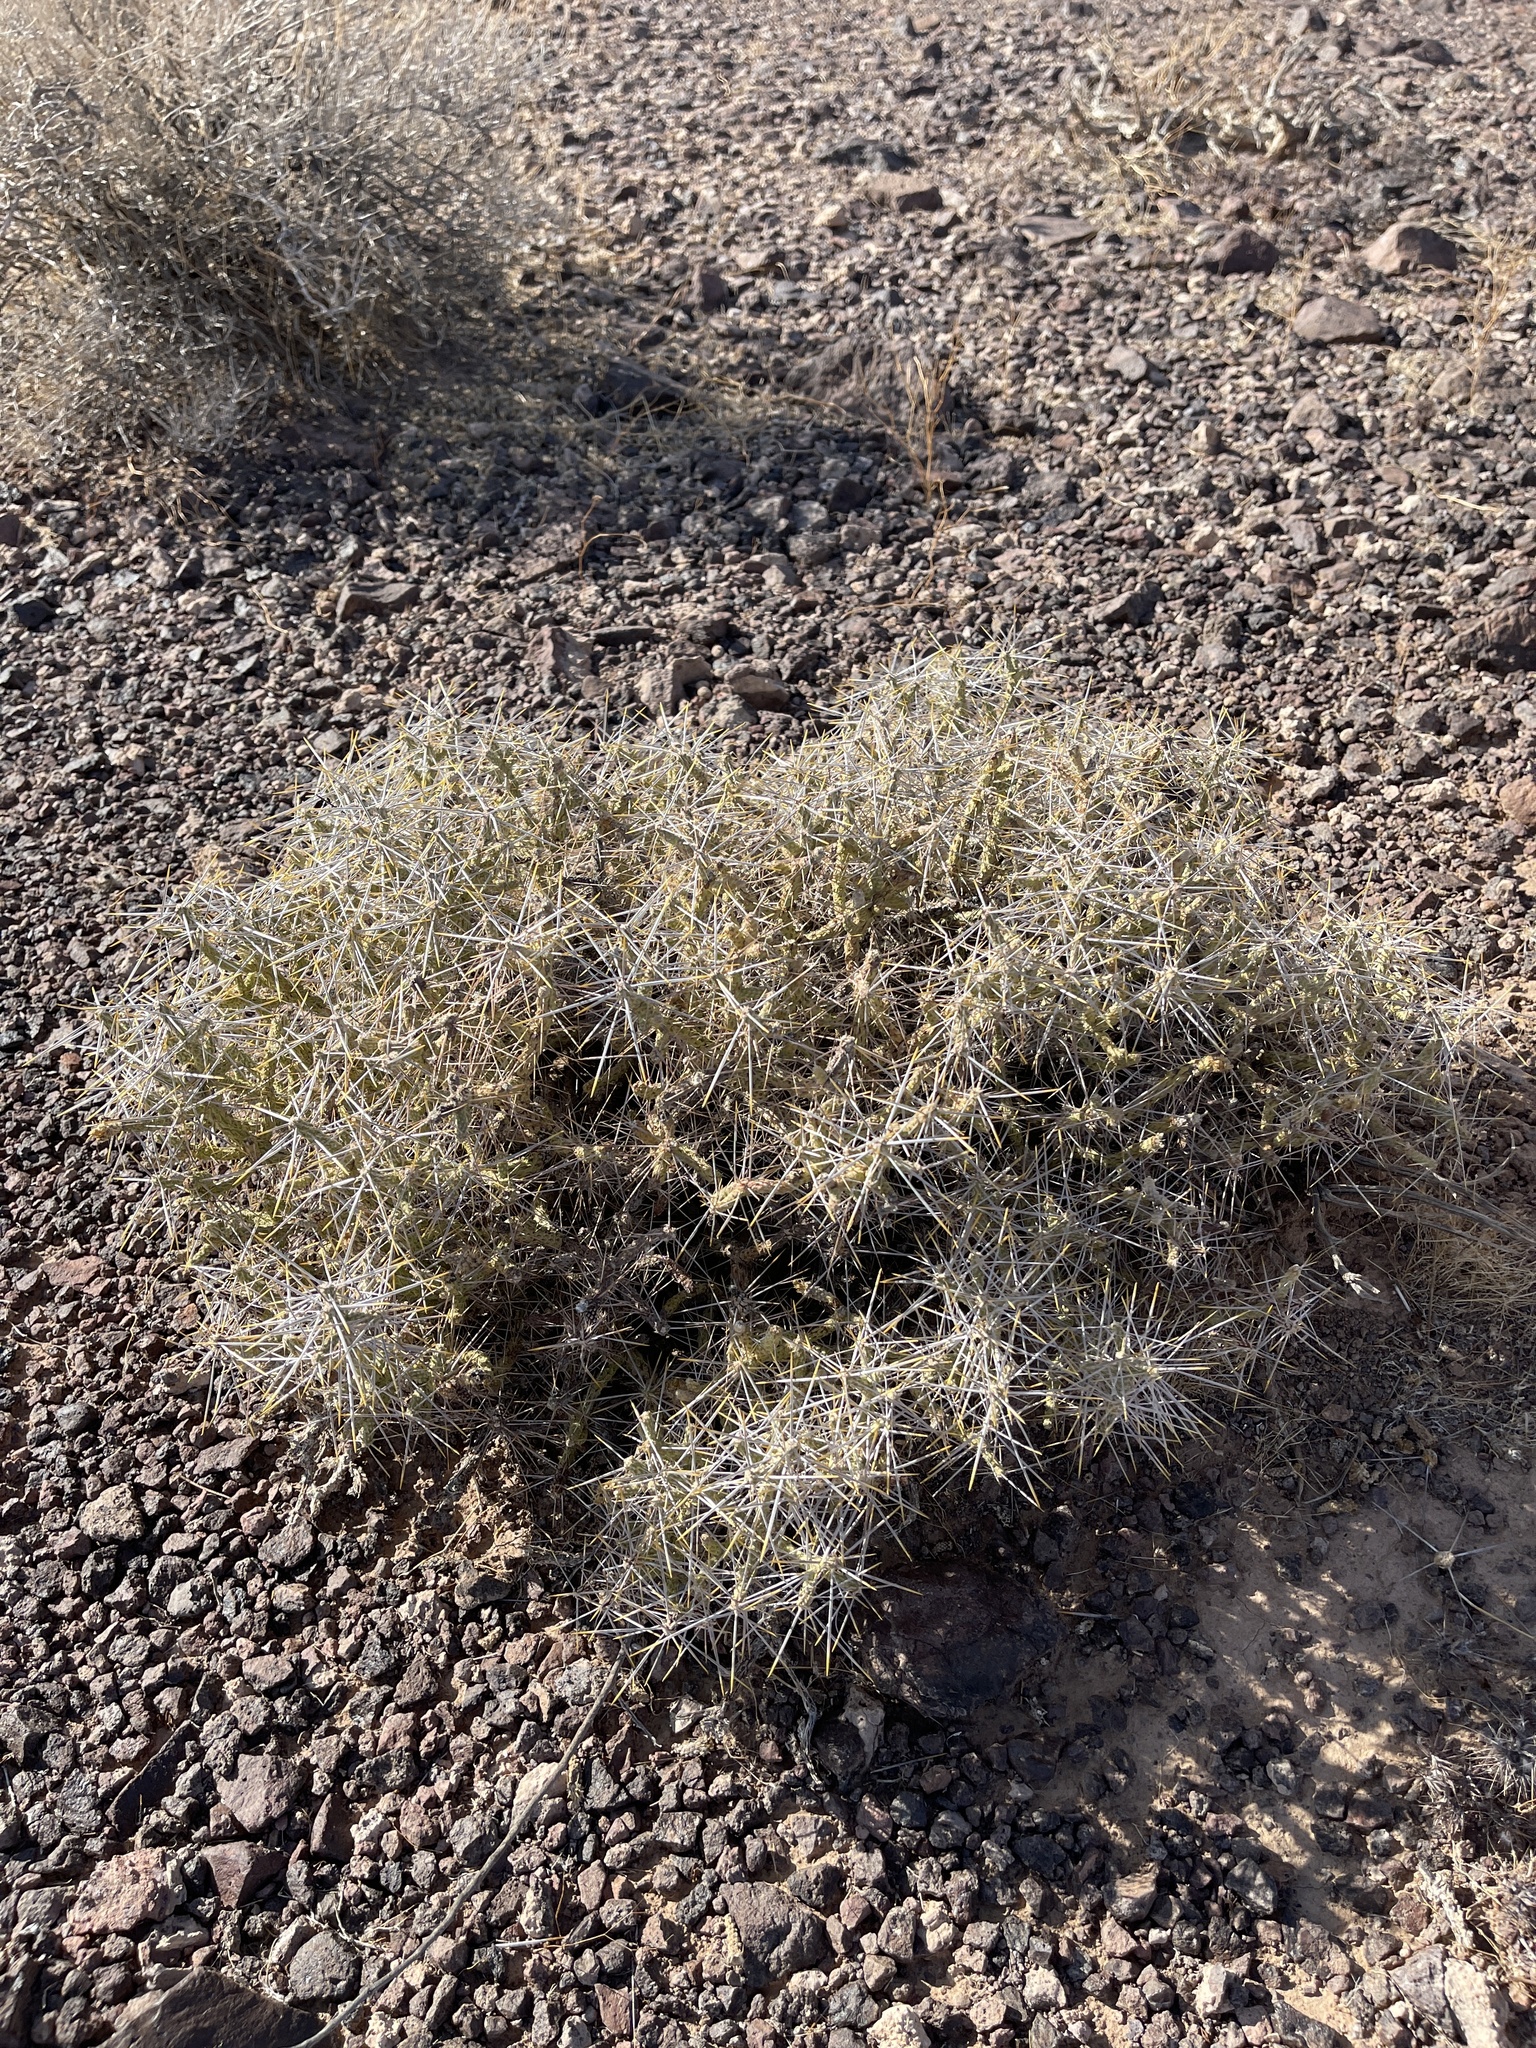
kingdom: Plantae
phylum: Tracheophyta
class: Magnoliopsida
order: Caryophyllales
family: Cactaceae
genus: Cylindropuntia
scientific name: Cylindropuntia ramosissima
